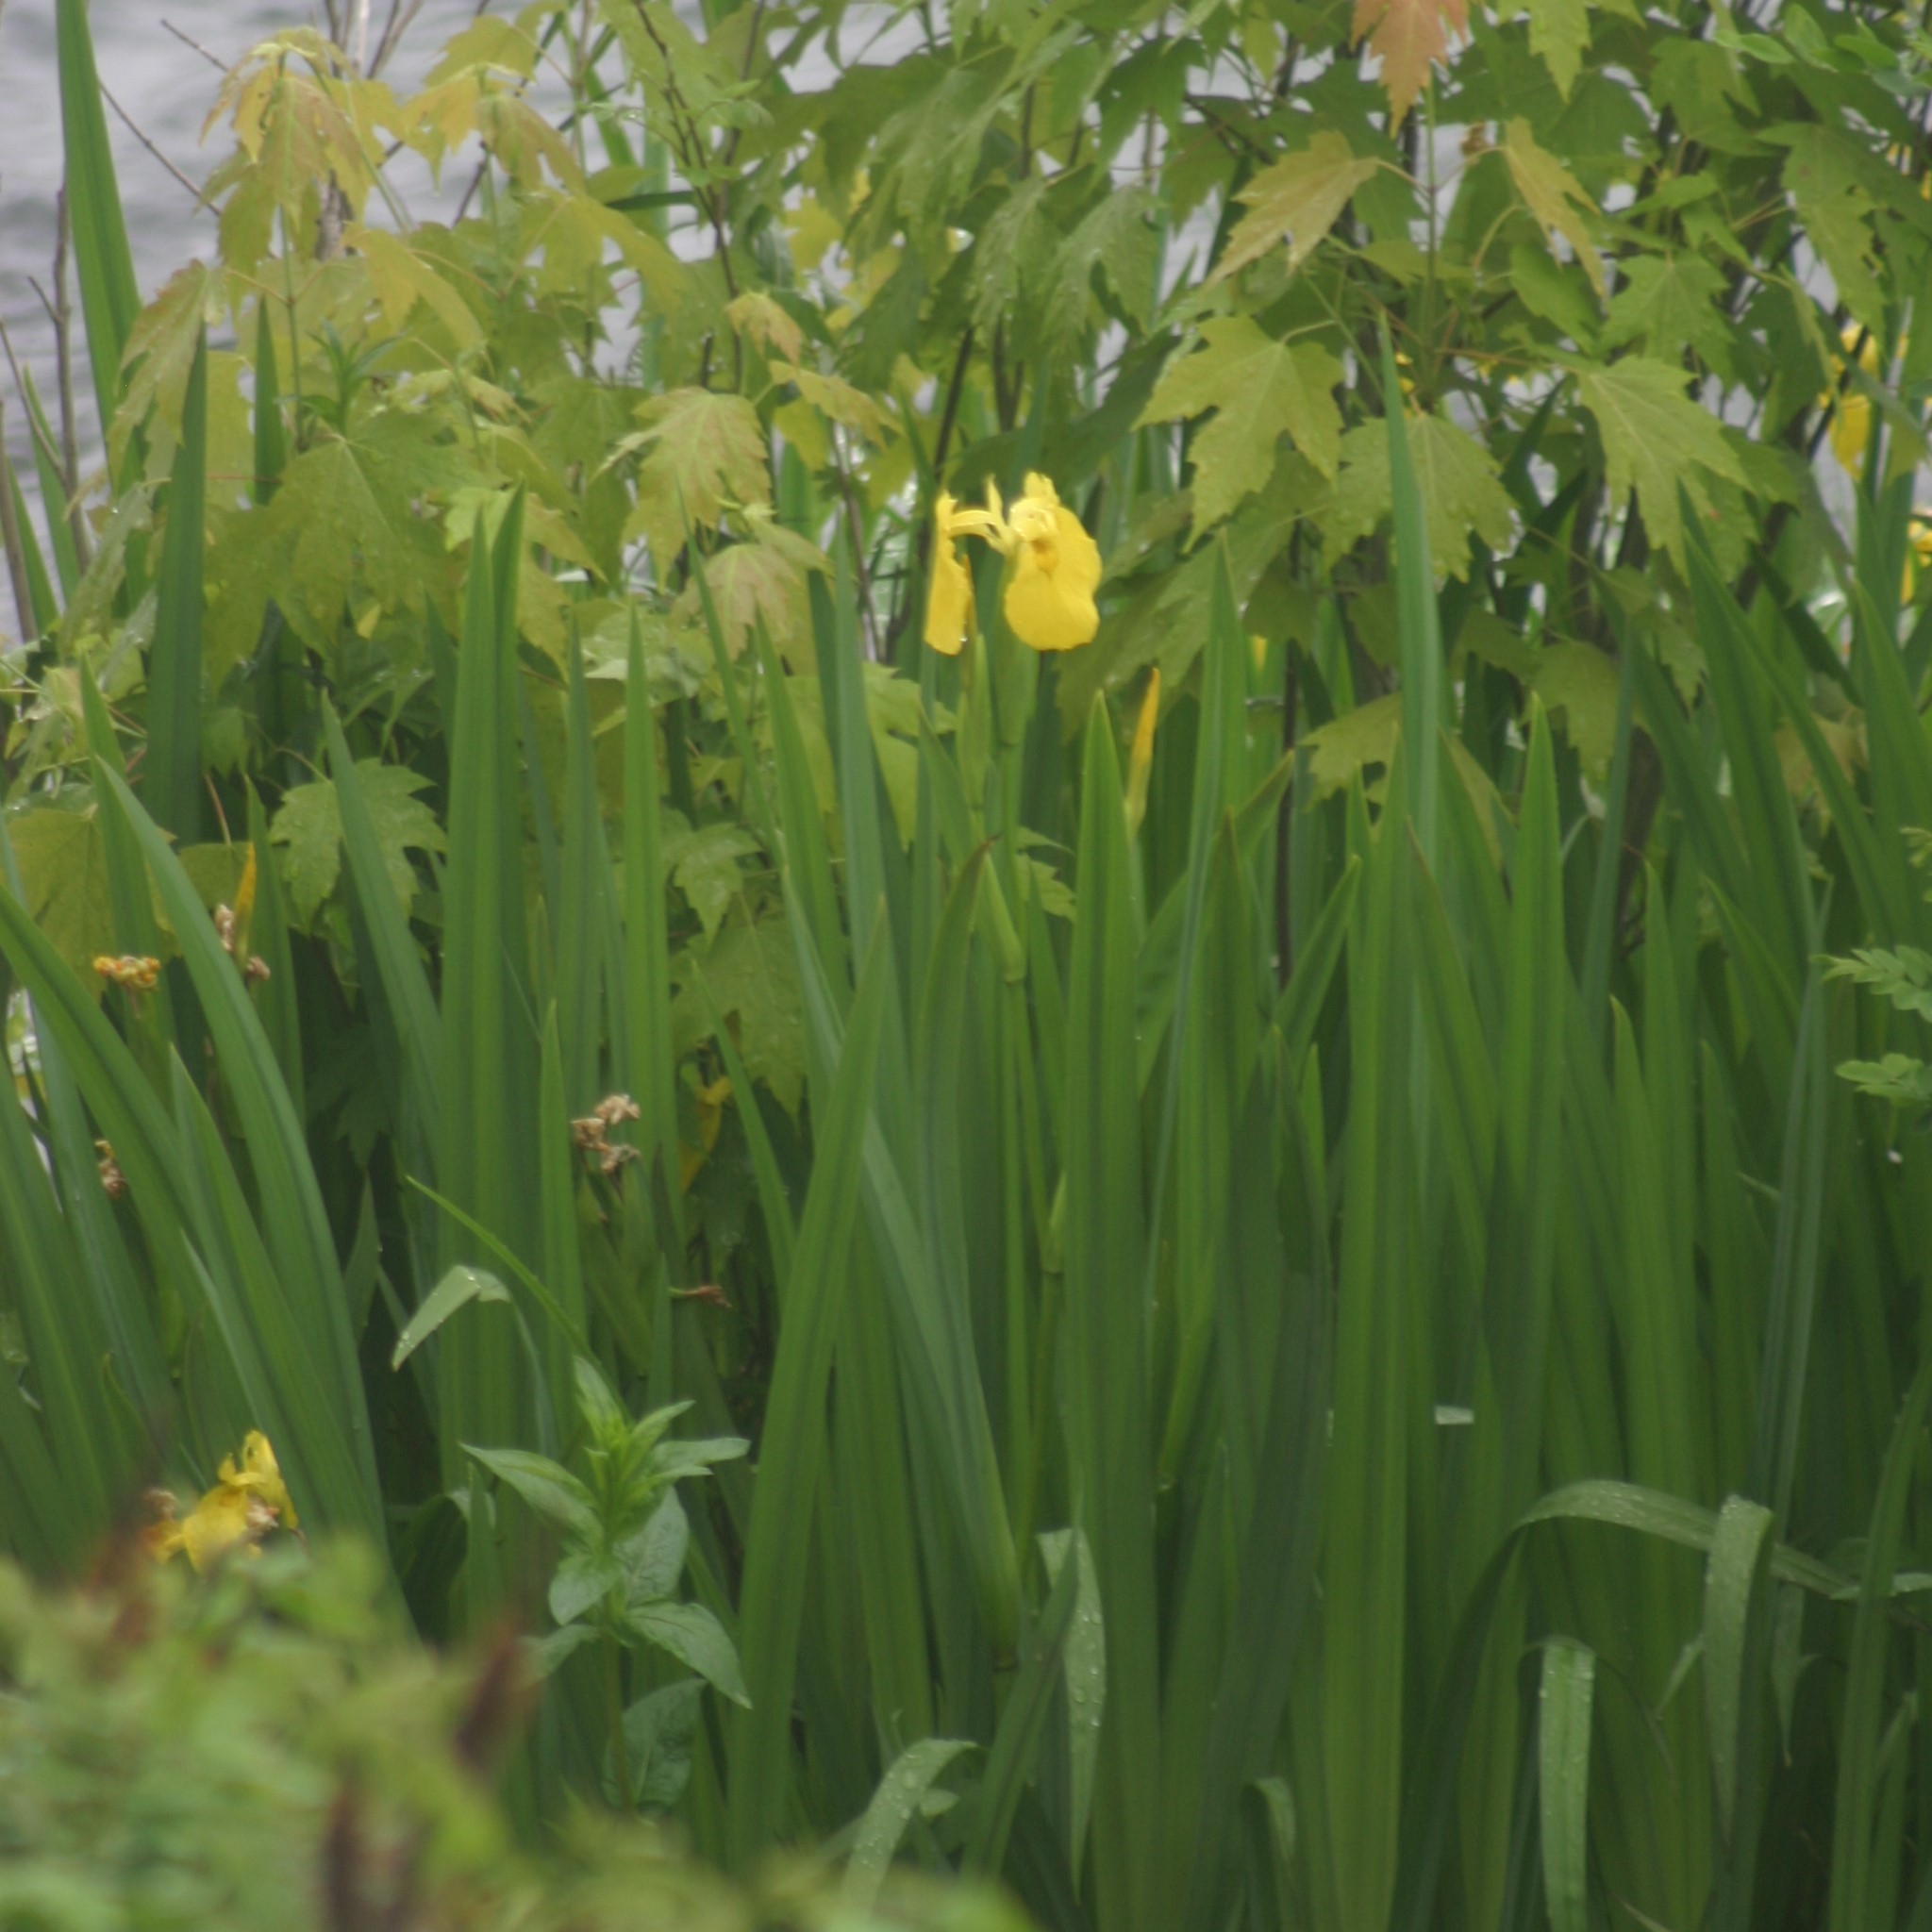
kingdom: Plantae
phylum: Tracheophyta
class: Liliopsida
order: Asparagales
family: Iridaceae
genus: Iris
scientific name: Iris pseudacorus
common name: Yellow flag
